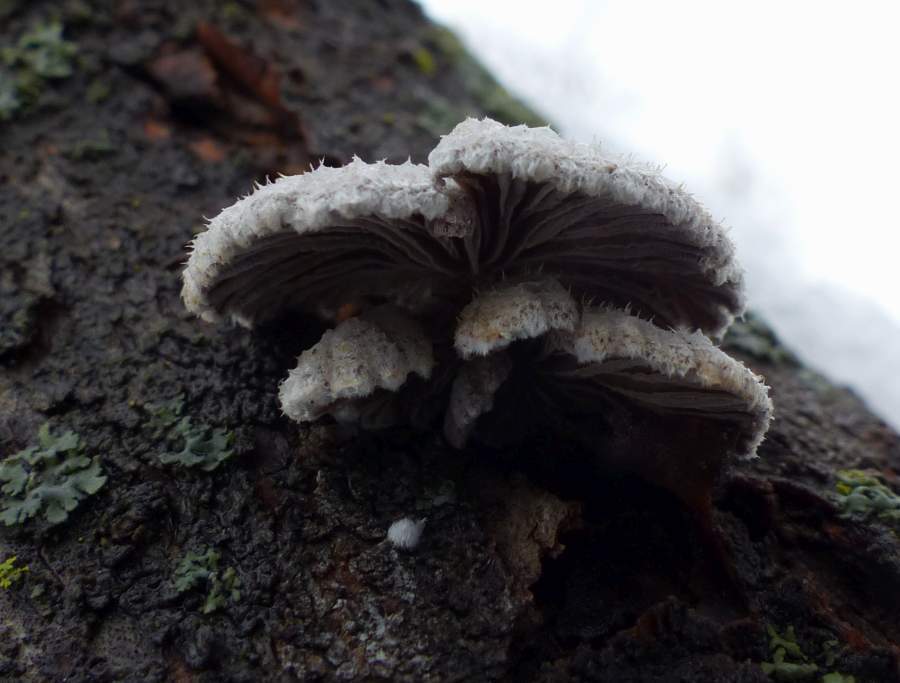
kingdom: Fungi
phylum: Basidiomycota
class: Agaricomycetes
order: Agaricales
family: Schizophyllaceae
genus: Schizophyllum
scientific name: Schizophyllum commune
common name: Common porecrust
